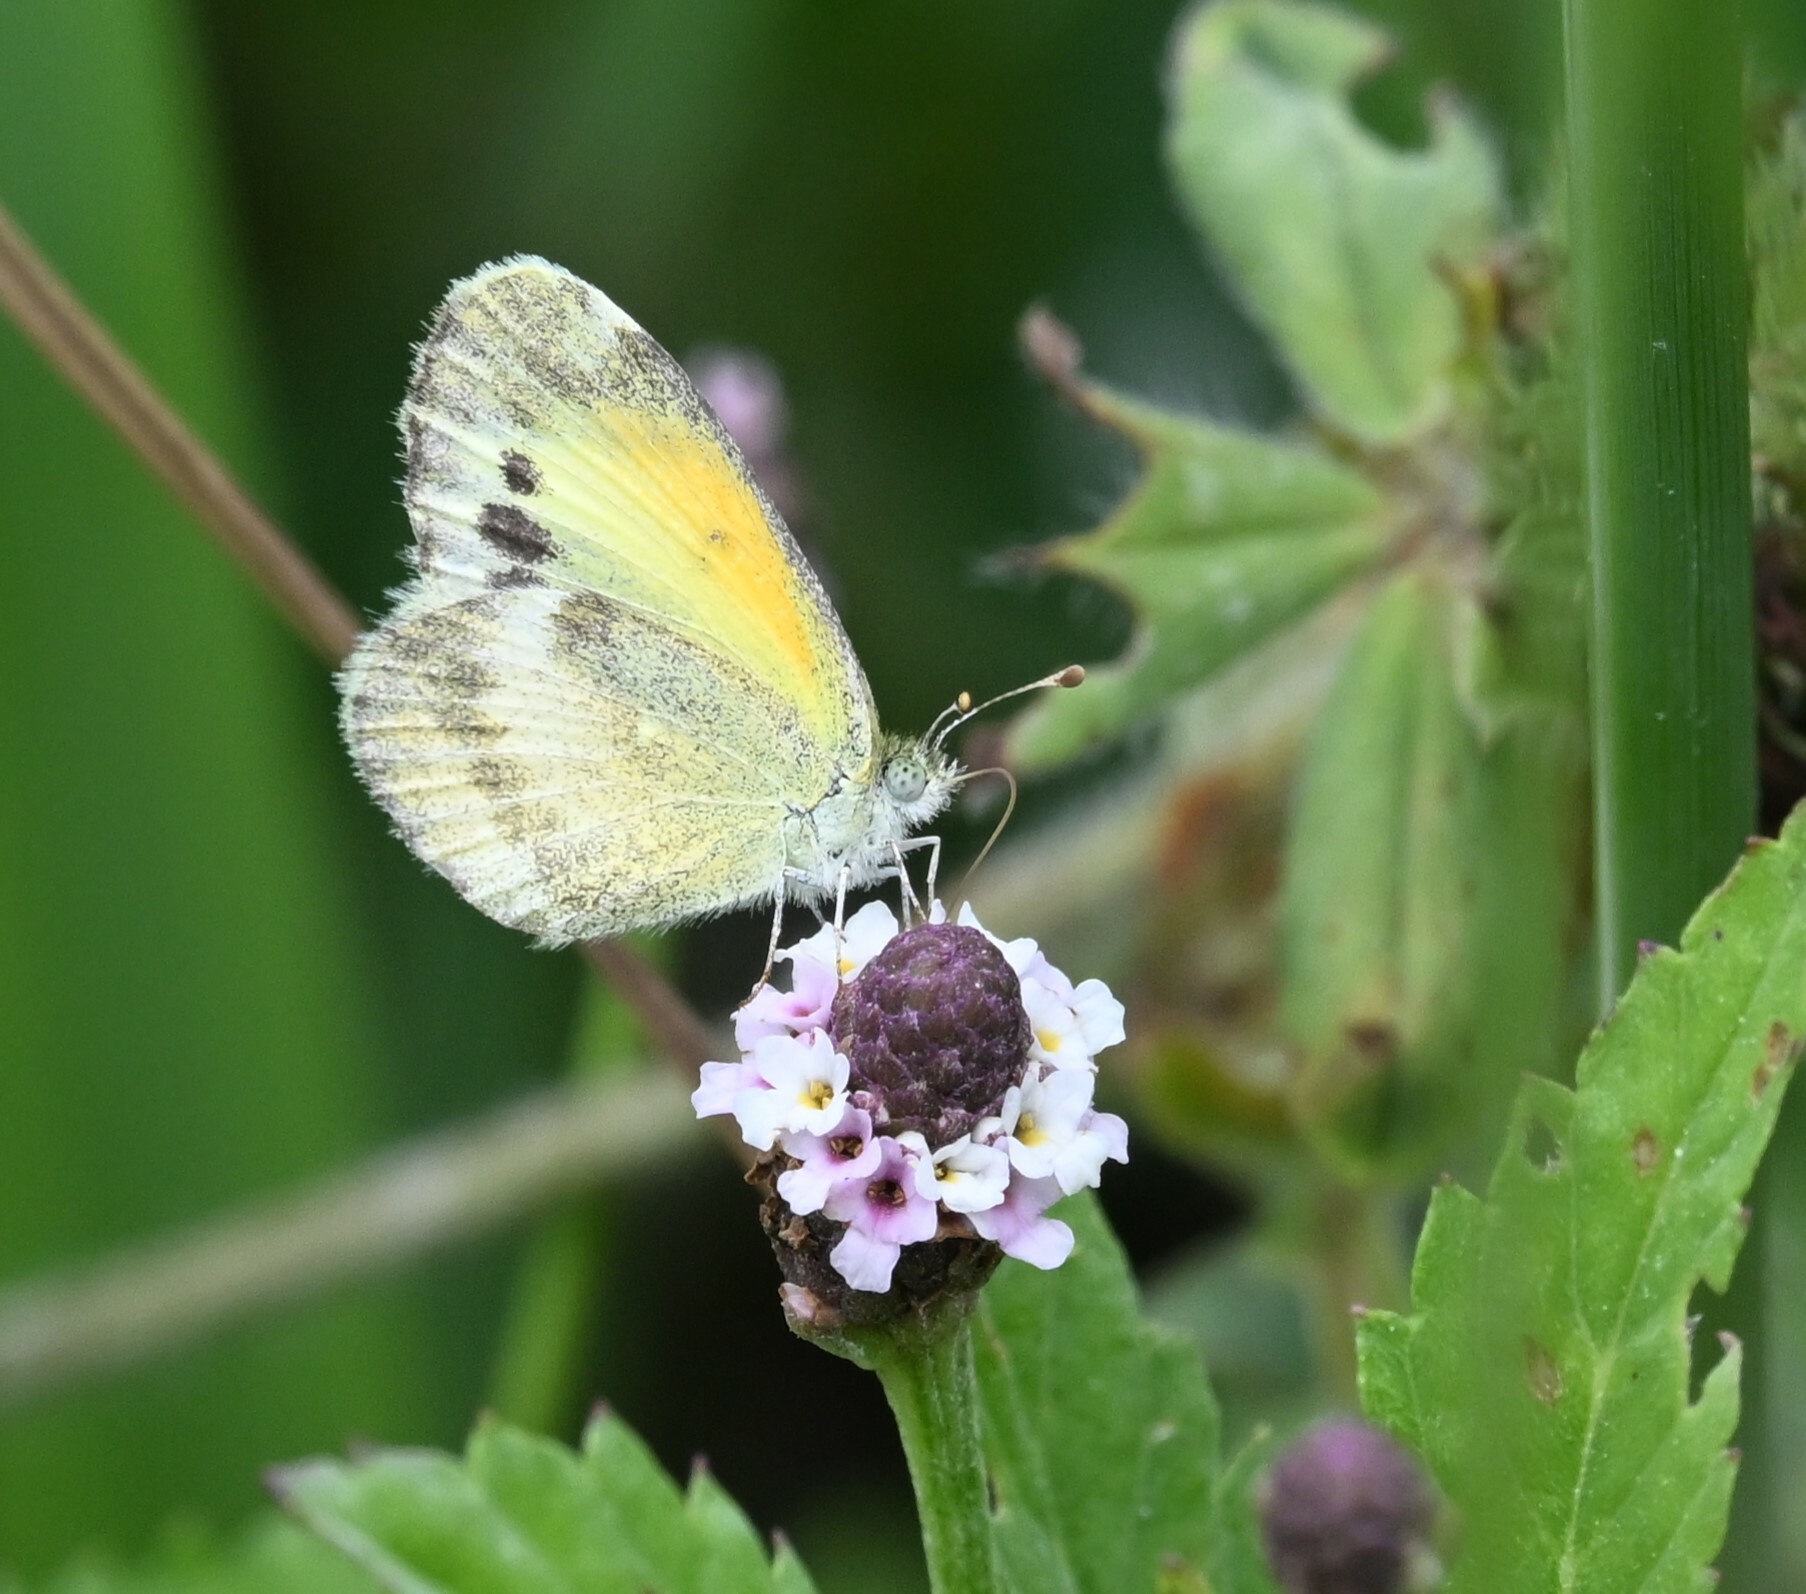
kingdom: Animalia
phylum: Arthropoda
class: Insecta
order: Lepidoptera
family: Pieridae
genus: Nathalis
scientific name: Nathalis iole
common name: Dainty sulphur
